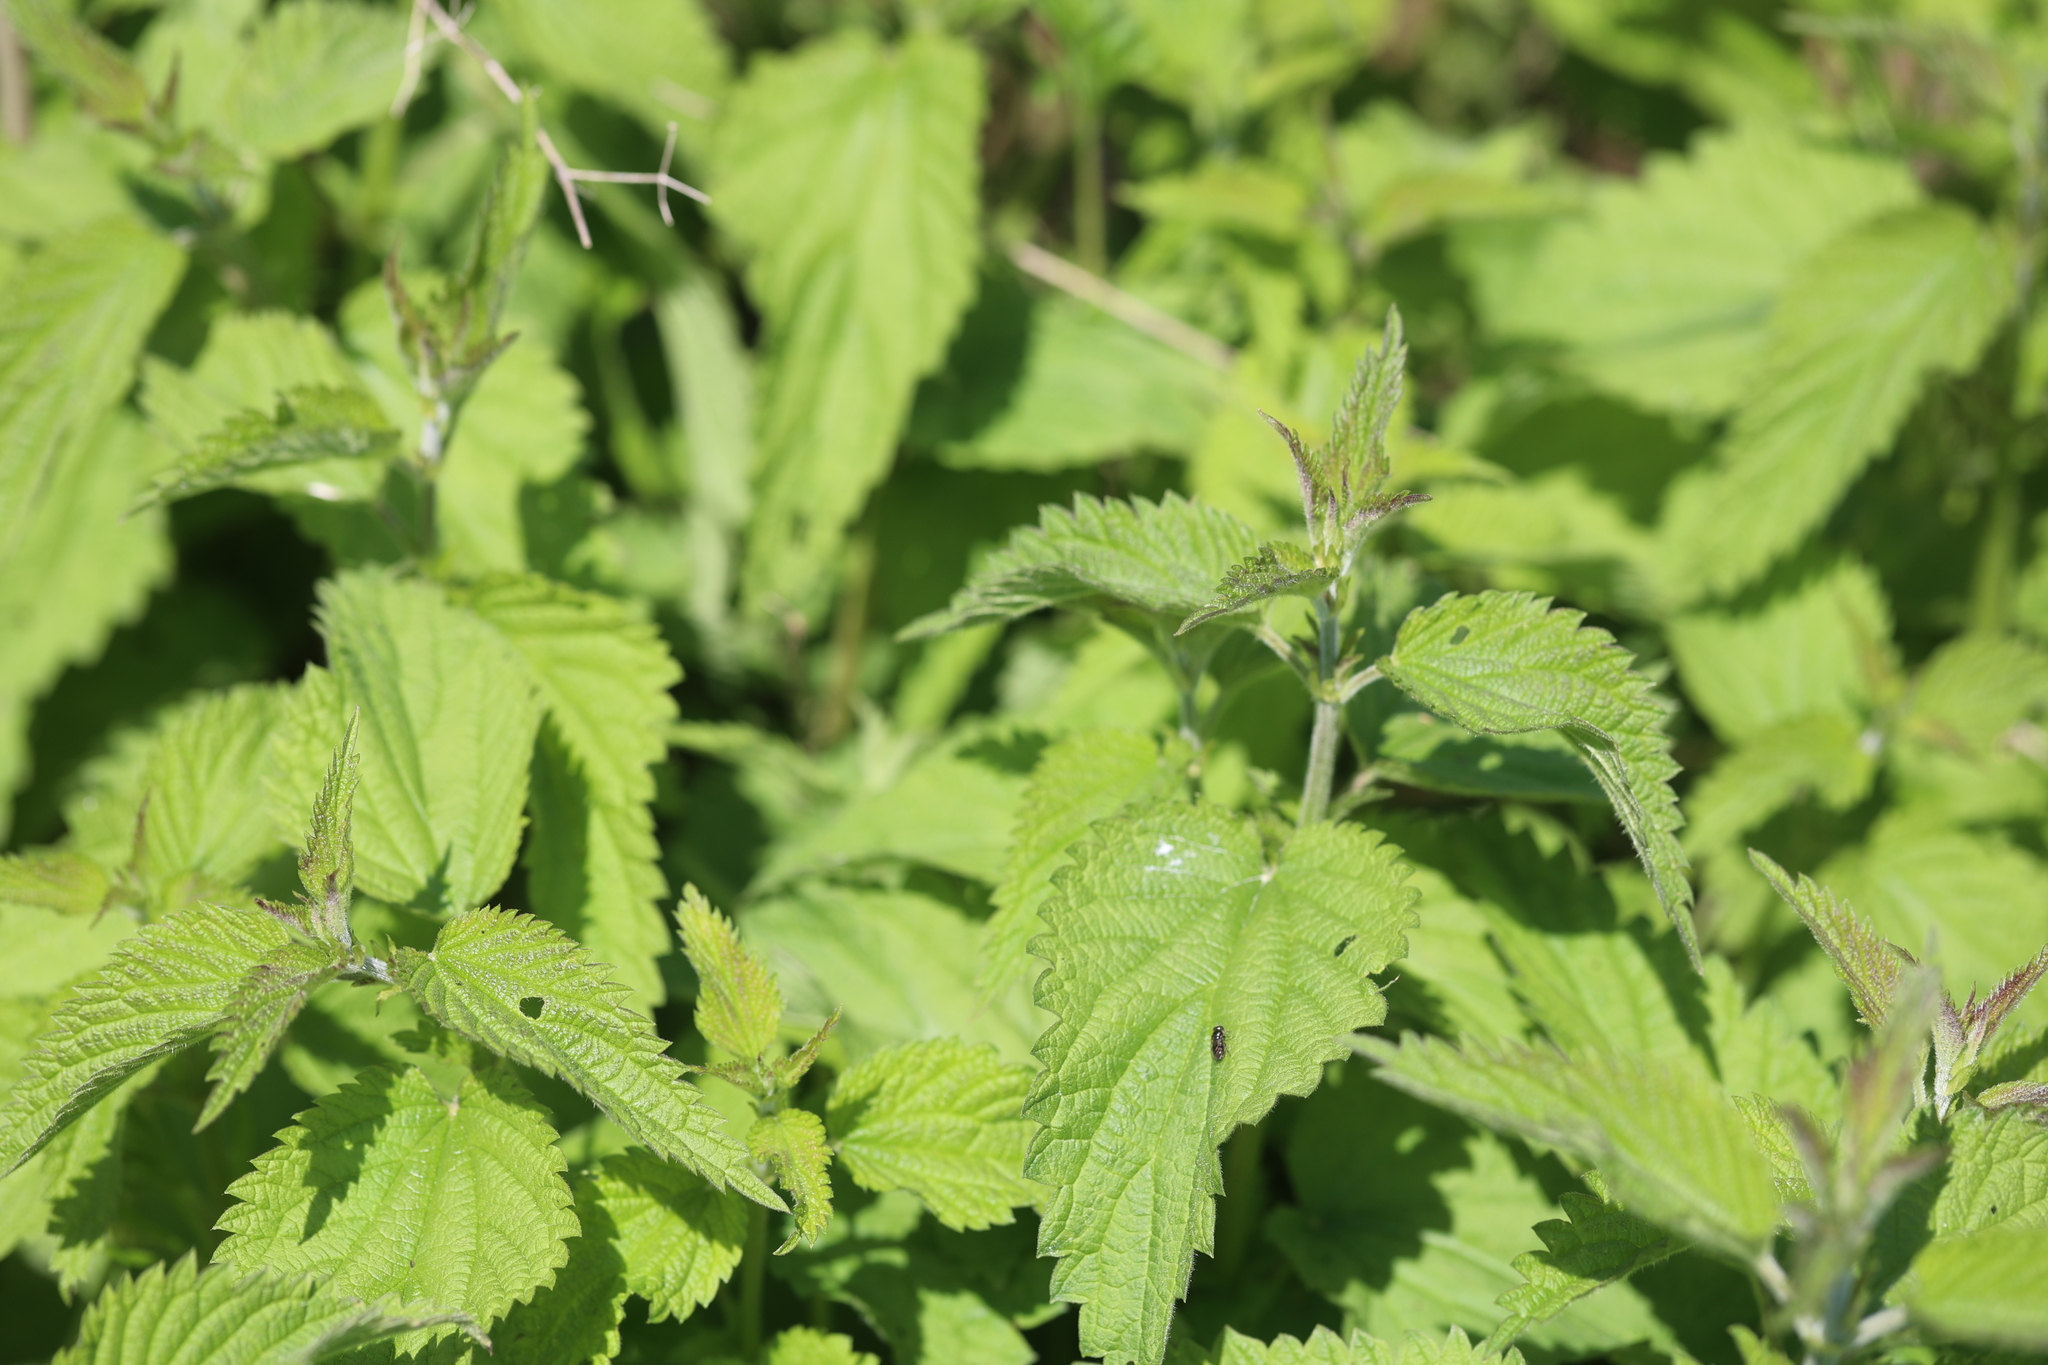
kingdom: Plantae
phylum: Tracheophyta
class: Magnoliopsida
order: Rosales
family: Urticaceae
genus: Urtica
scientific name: Urtica dioica
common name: Common nettle
